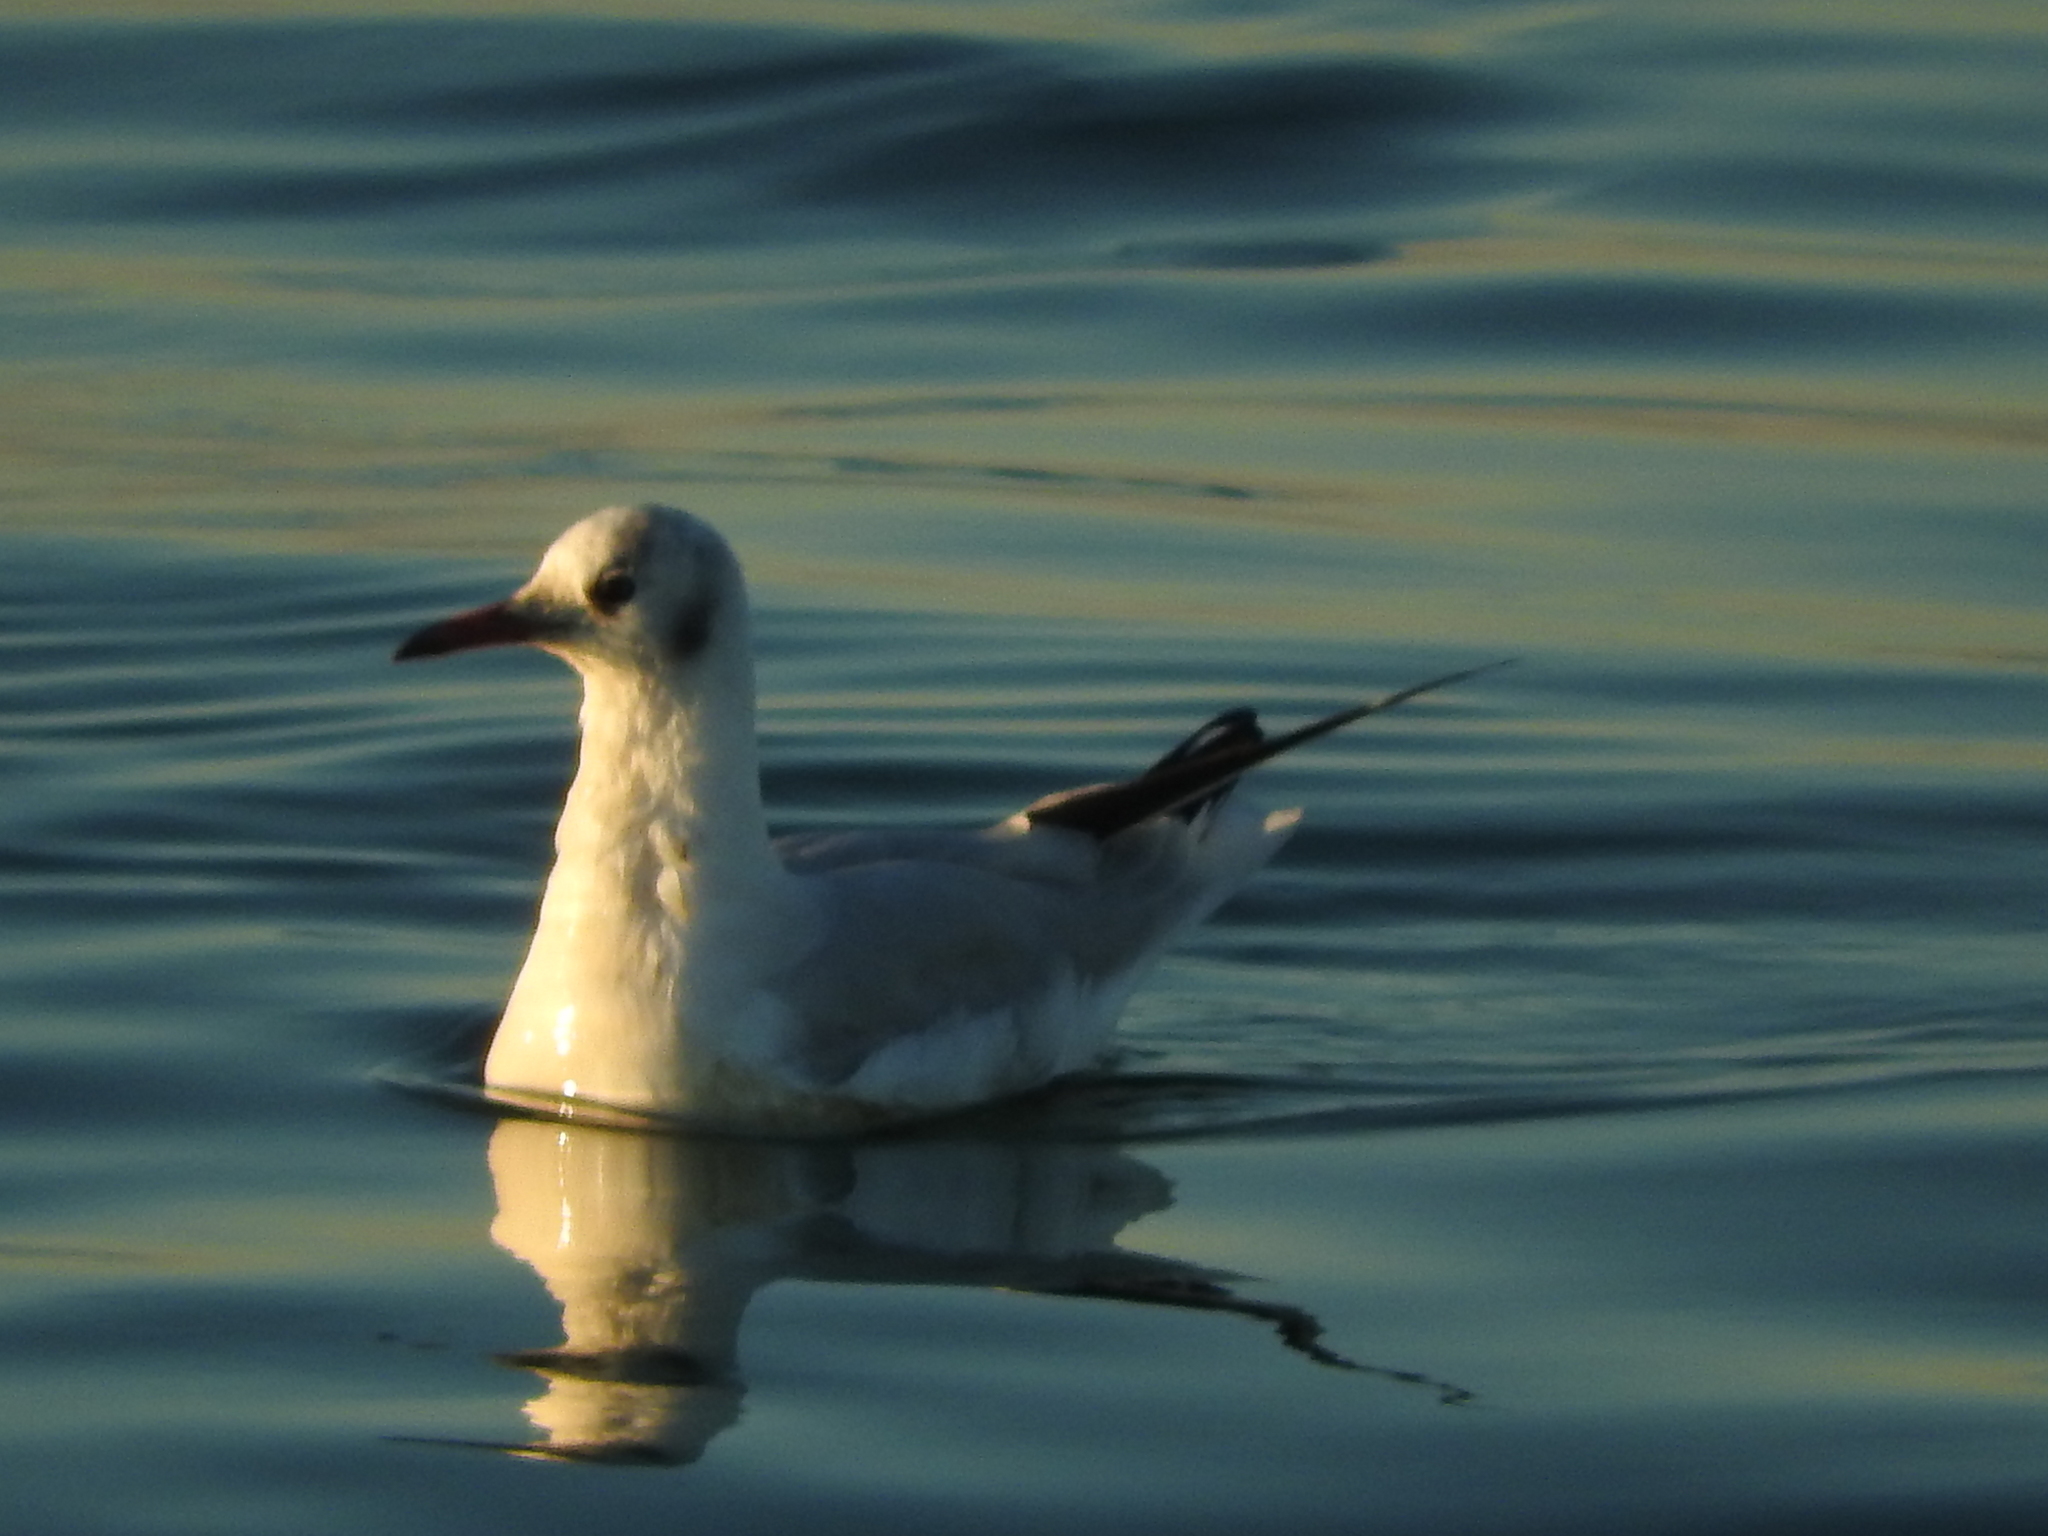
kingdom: Animalia
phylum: Chordata
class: Aves
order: Charadriiformes
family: Laridae
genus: Chroicocephalus
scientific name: Chroicocephalus ridibundus
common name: Black-headed gull
